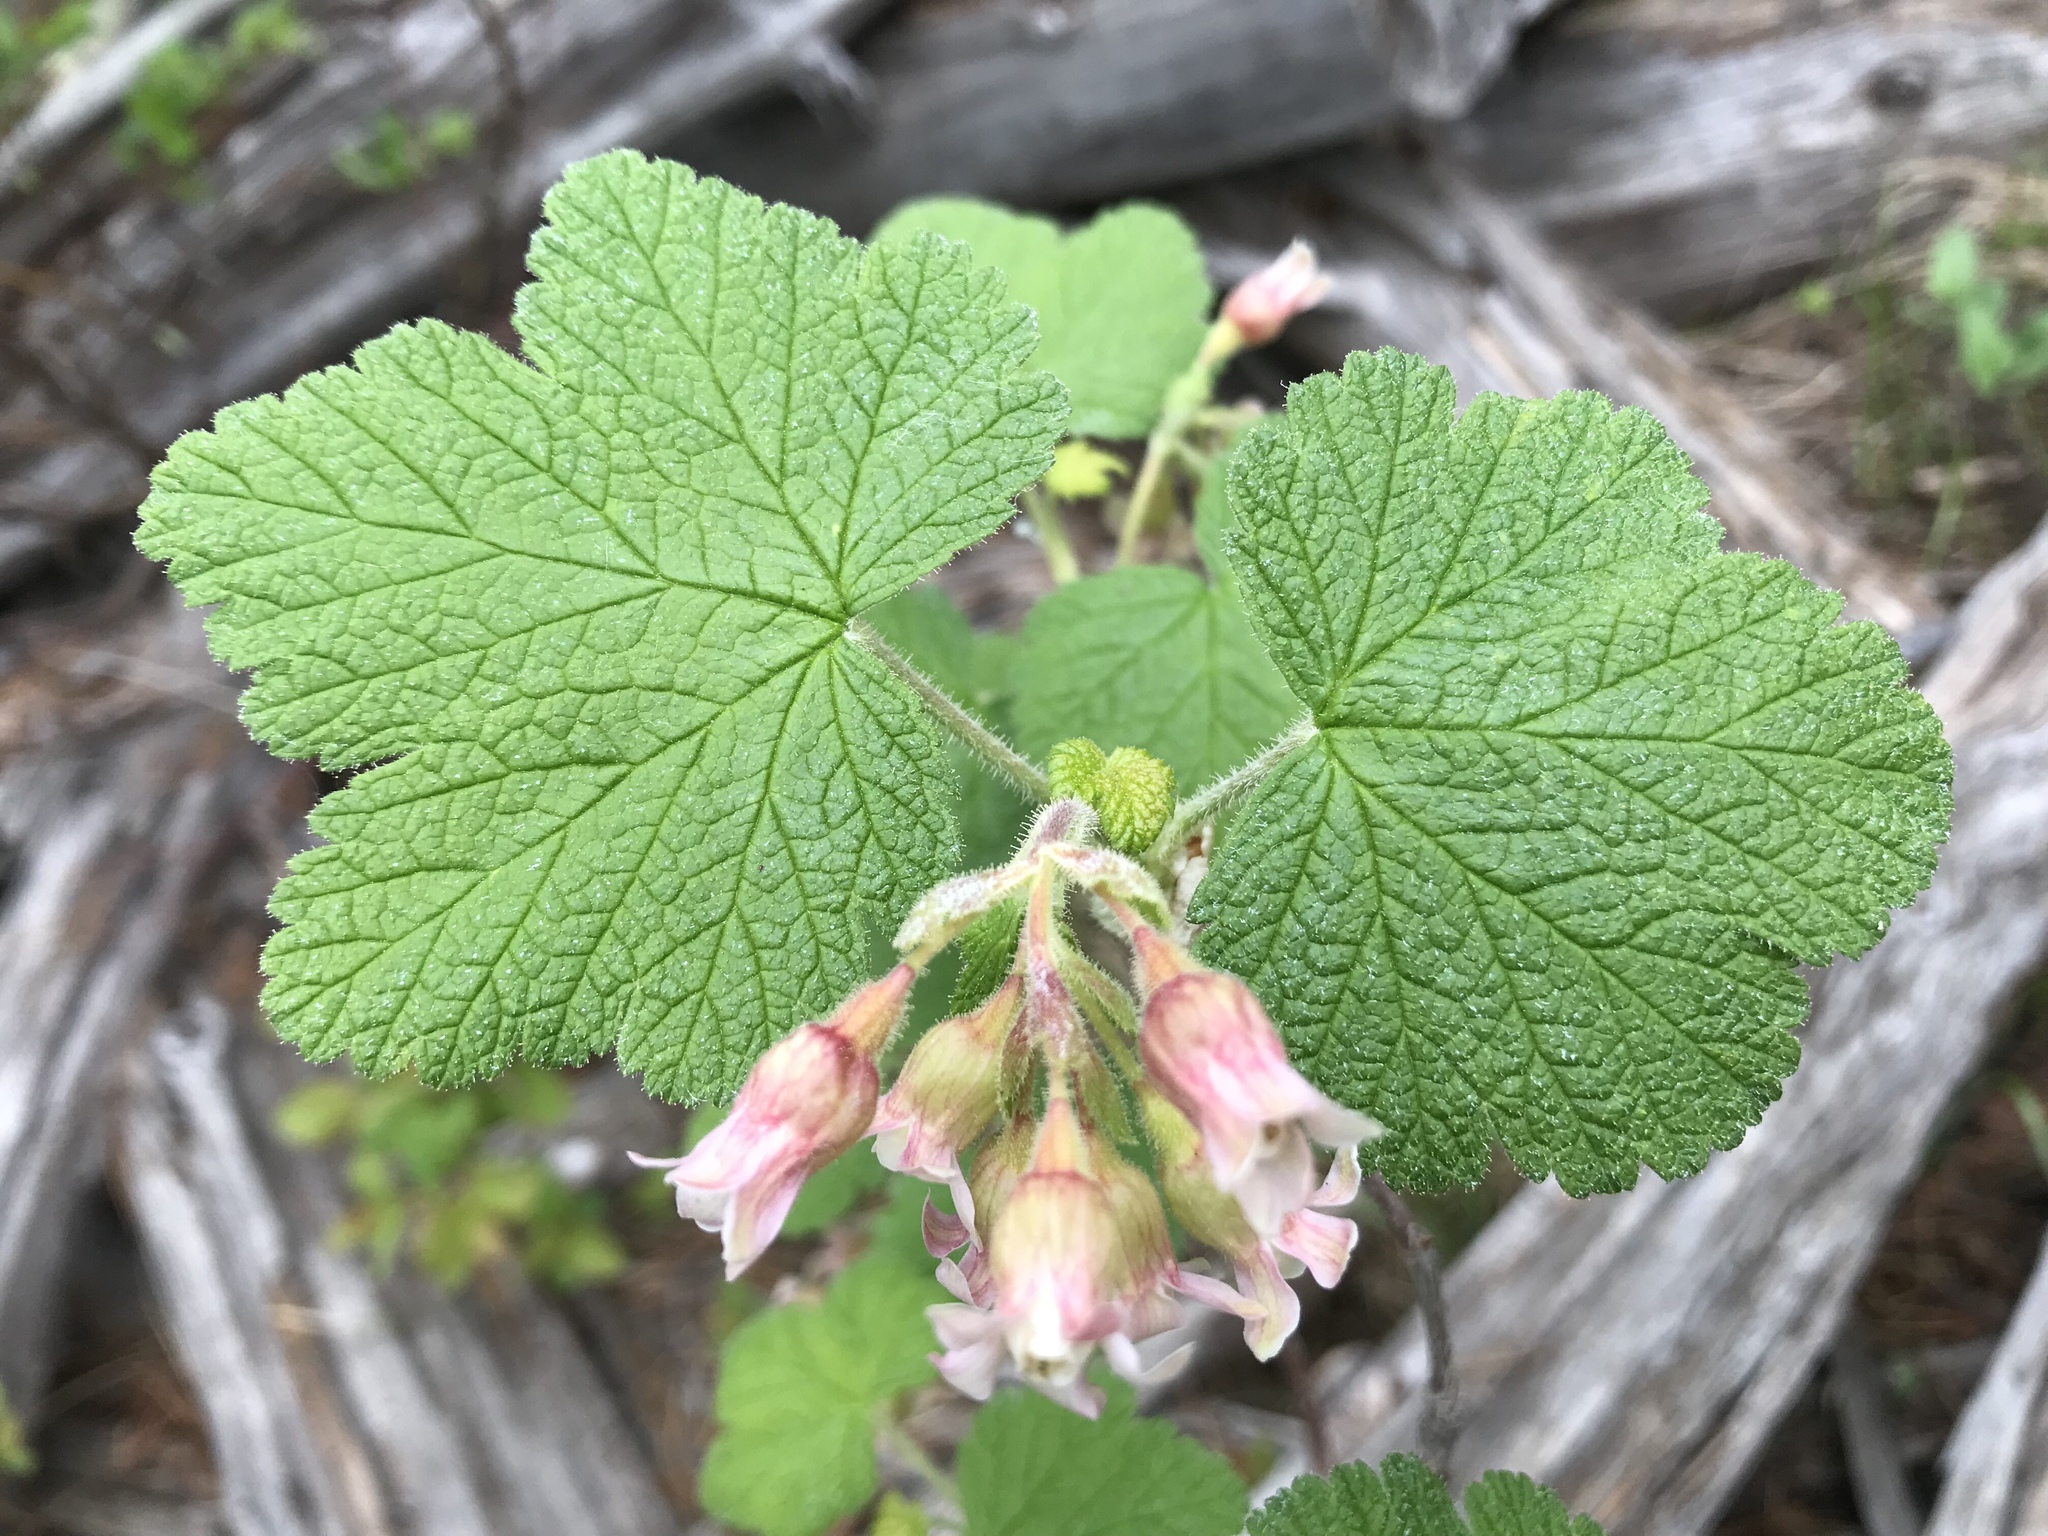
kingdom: Plantae
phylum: Tracheophyta
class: Magnoliopsida
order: Saxifragales
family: Grossulariaceae
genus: Ribes
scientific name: Ribes viscosissimum
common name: Sticky currant
